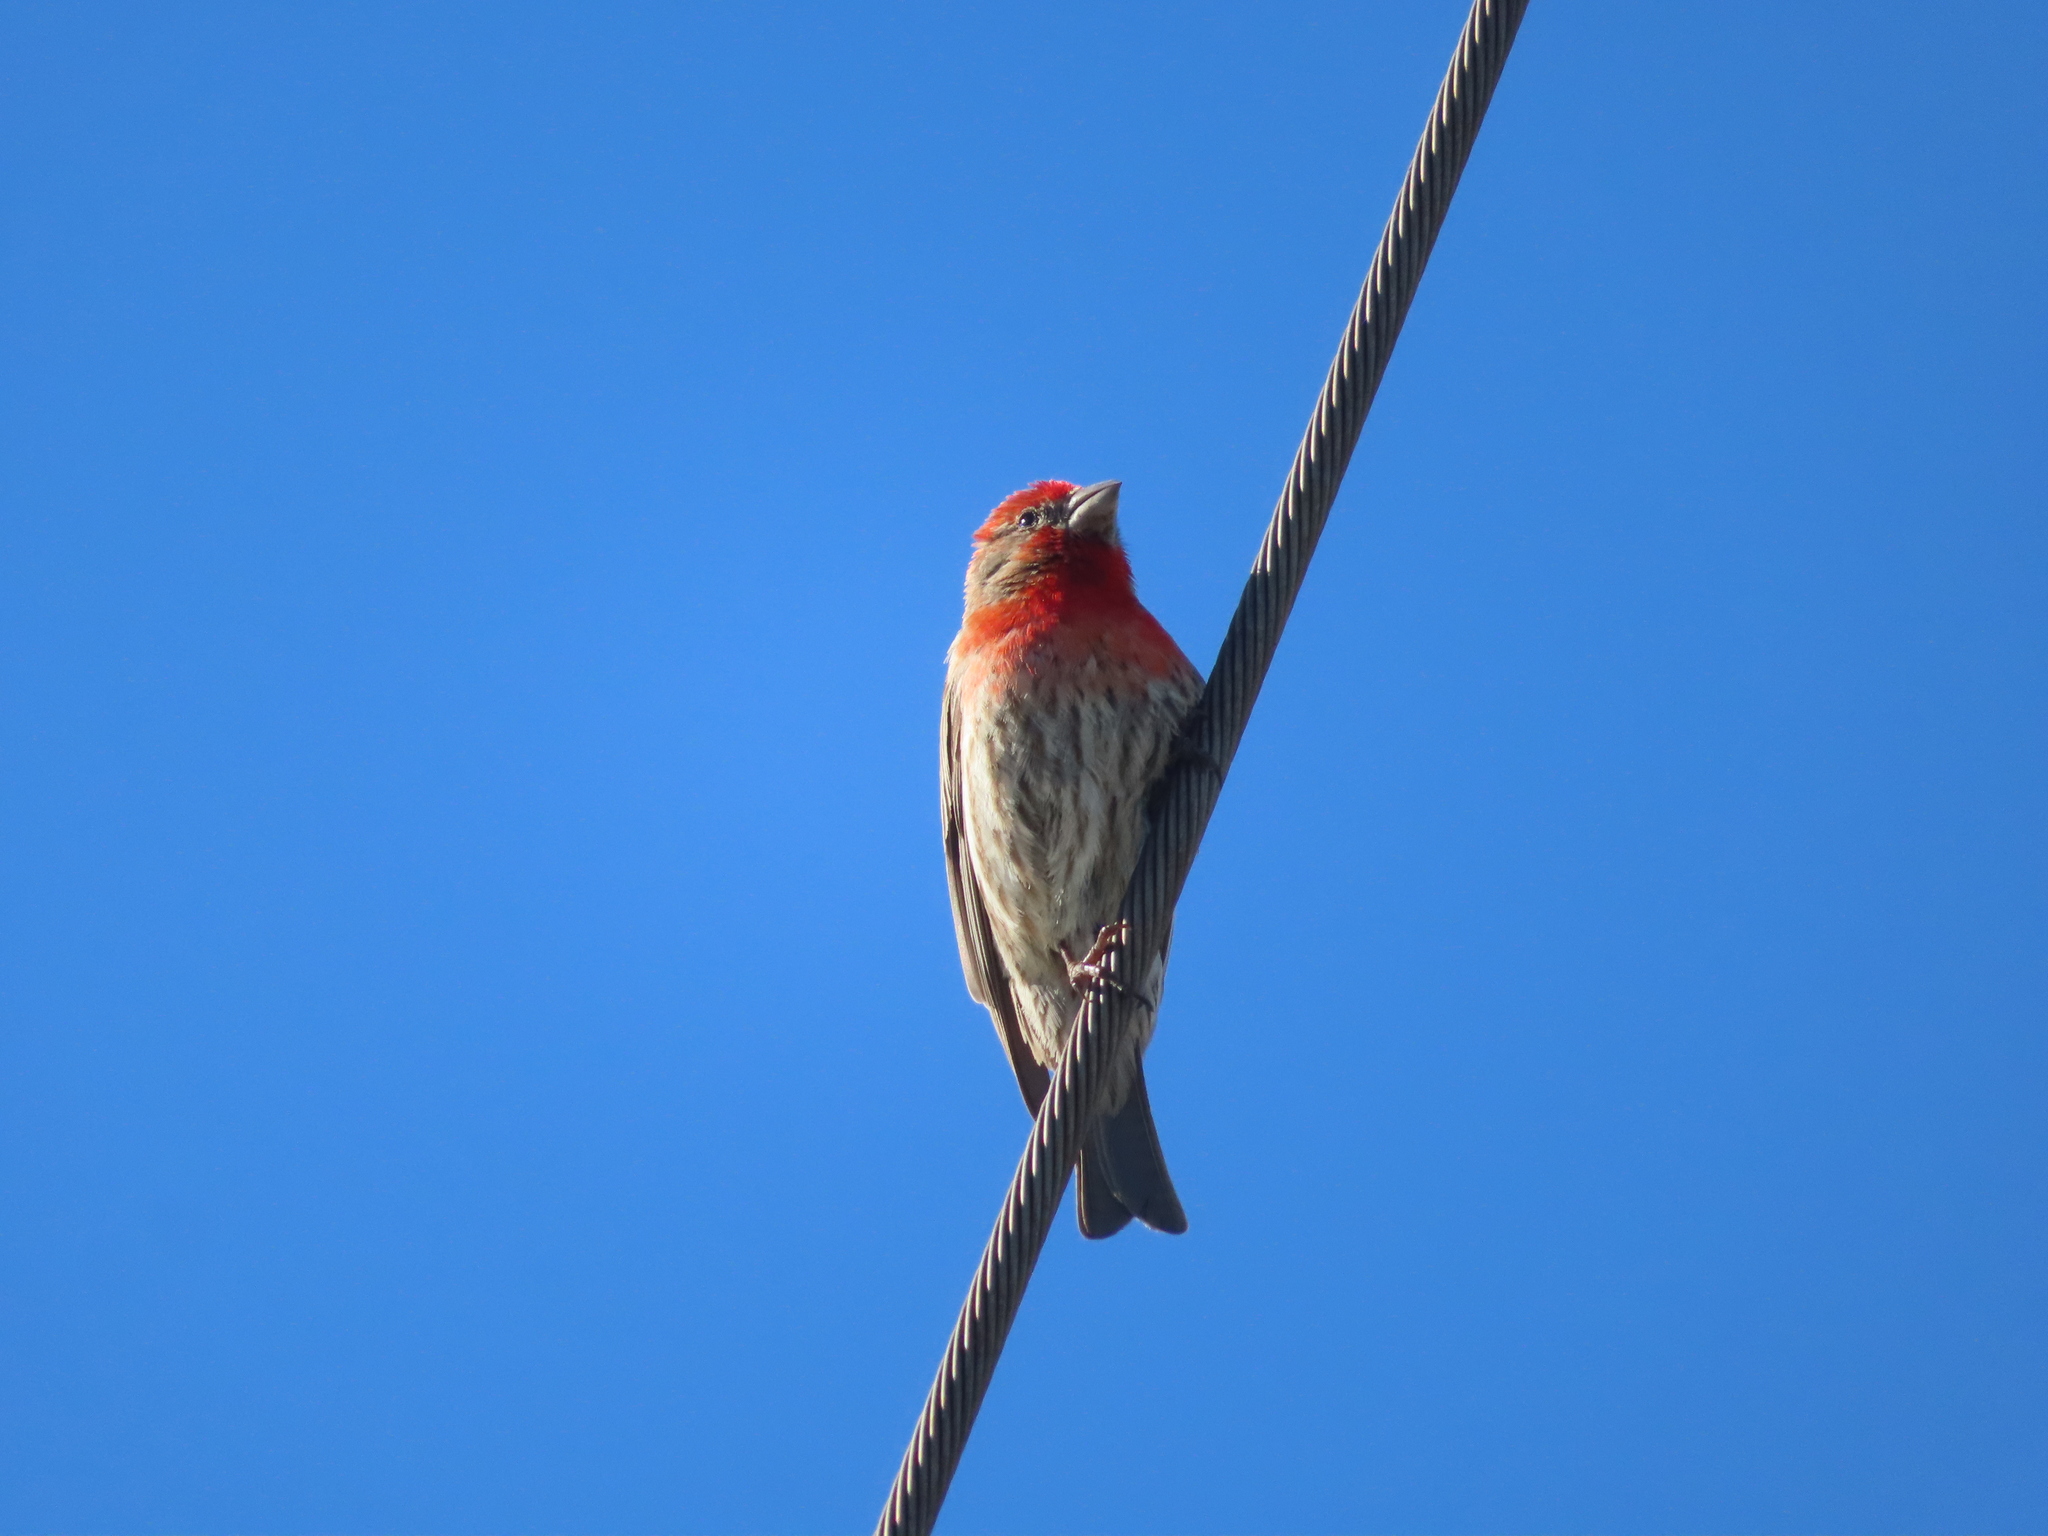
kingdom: Animalia
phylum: Chordata
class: Aves
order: Passeriformes
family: Fringillidae
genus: Haemorhous
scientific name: Haemorhous mexicanus
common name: House finch
